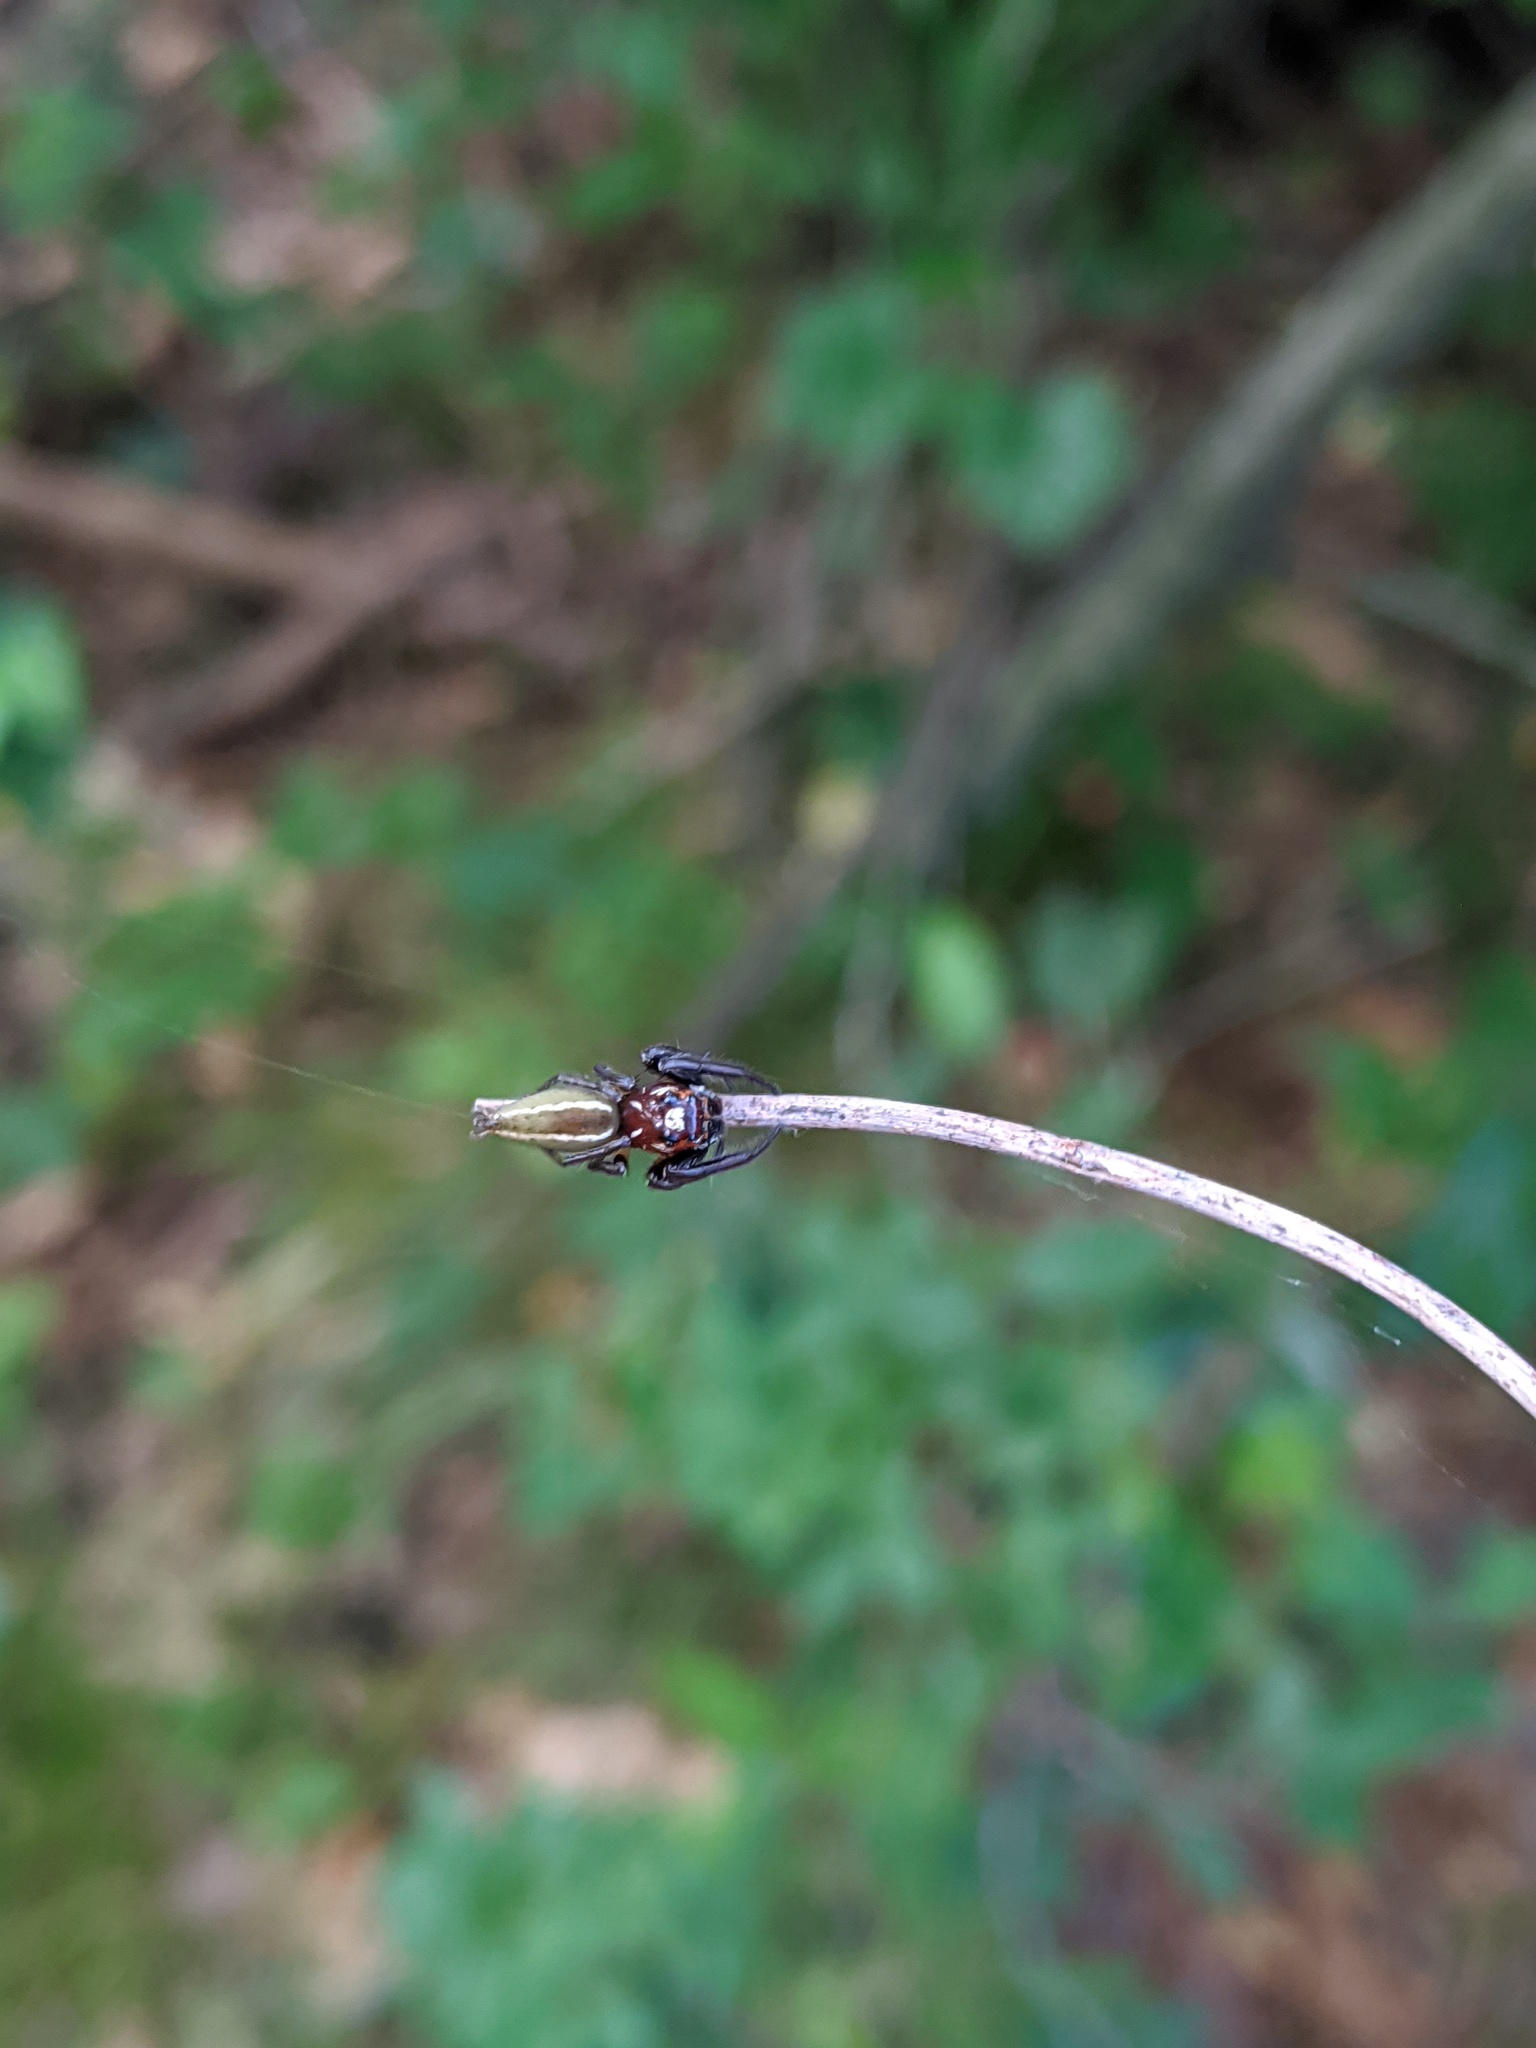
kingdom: Animalia
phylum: Arthropoda
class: Arachnida
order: Araneae
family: Salticidae
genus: Colonus
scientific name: Colonus sylvanus
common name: Jumping spiders
